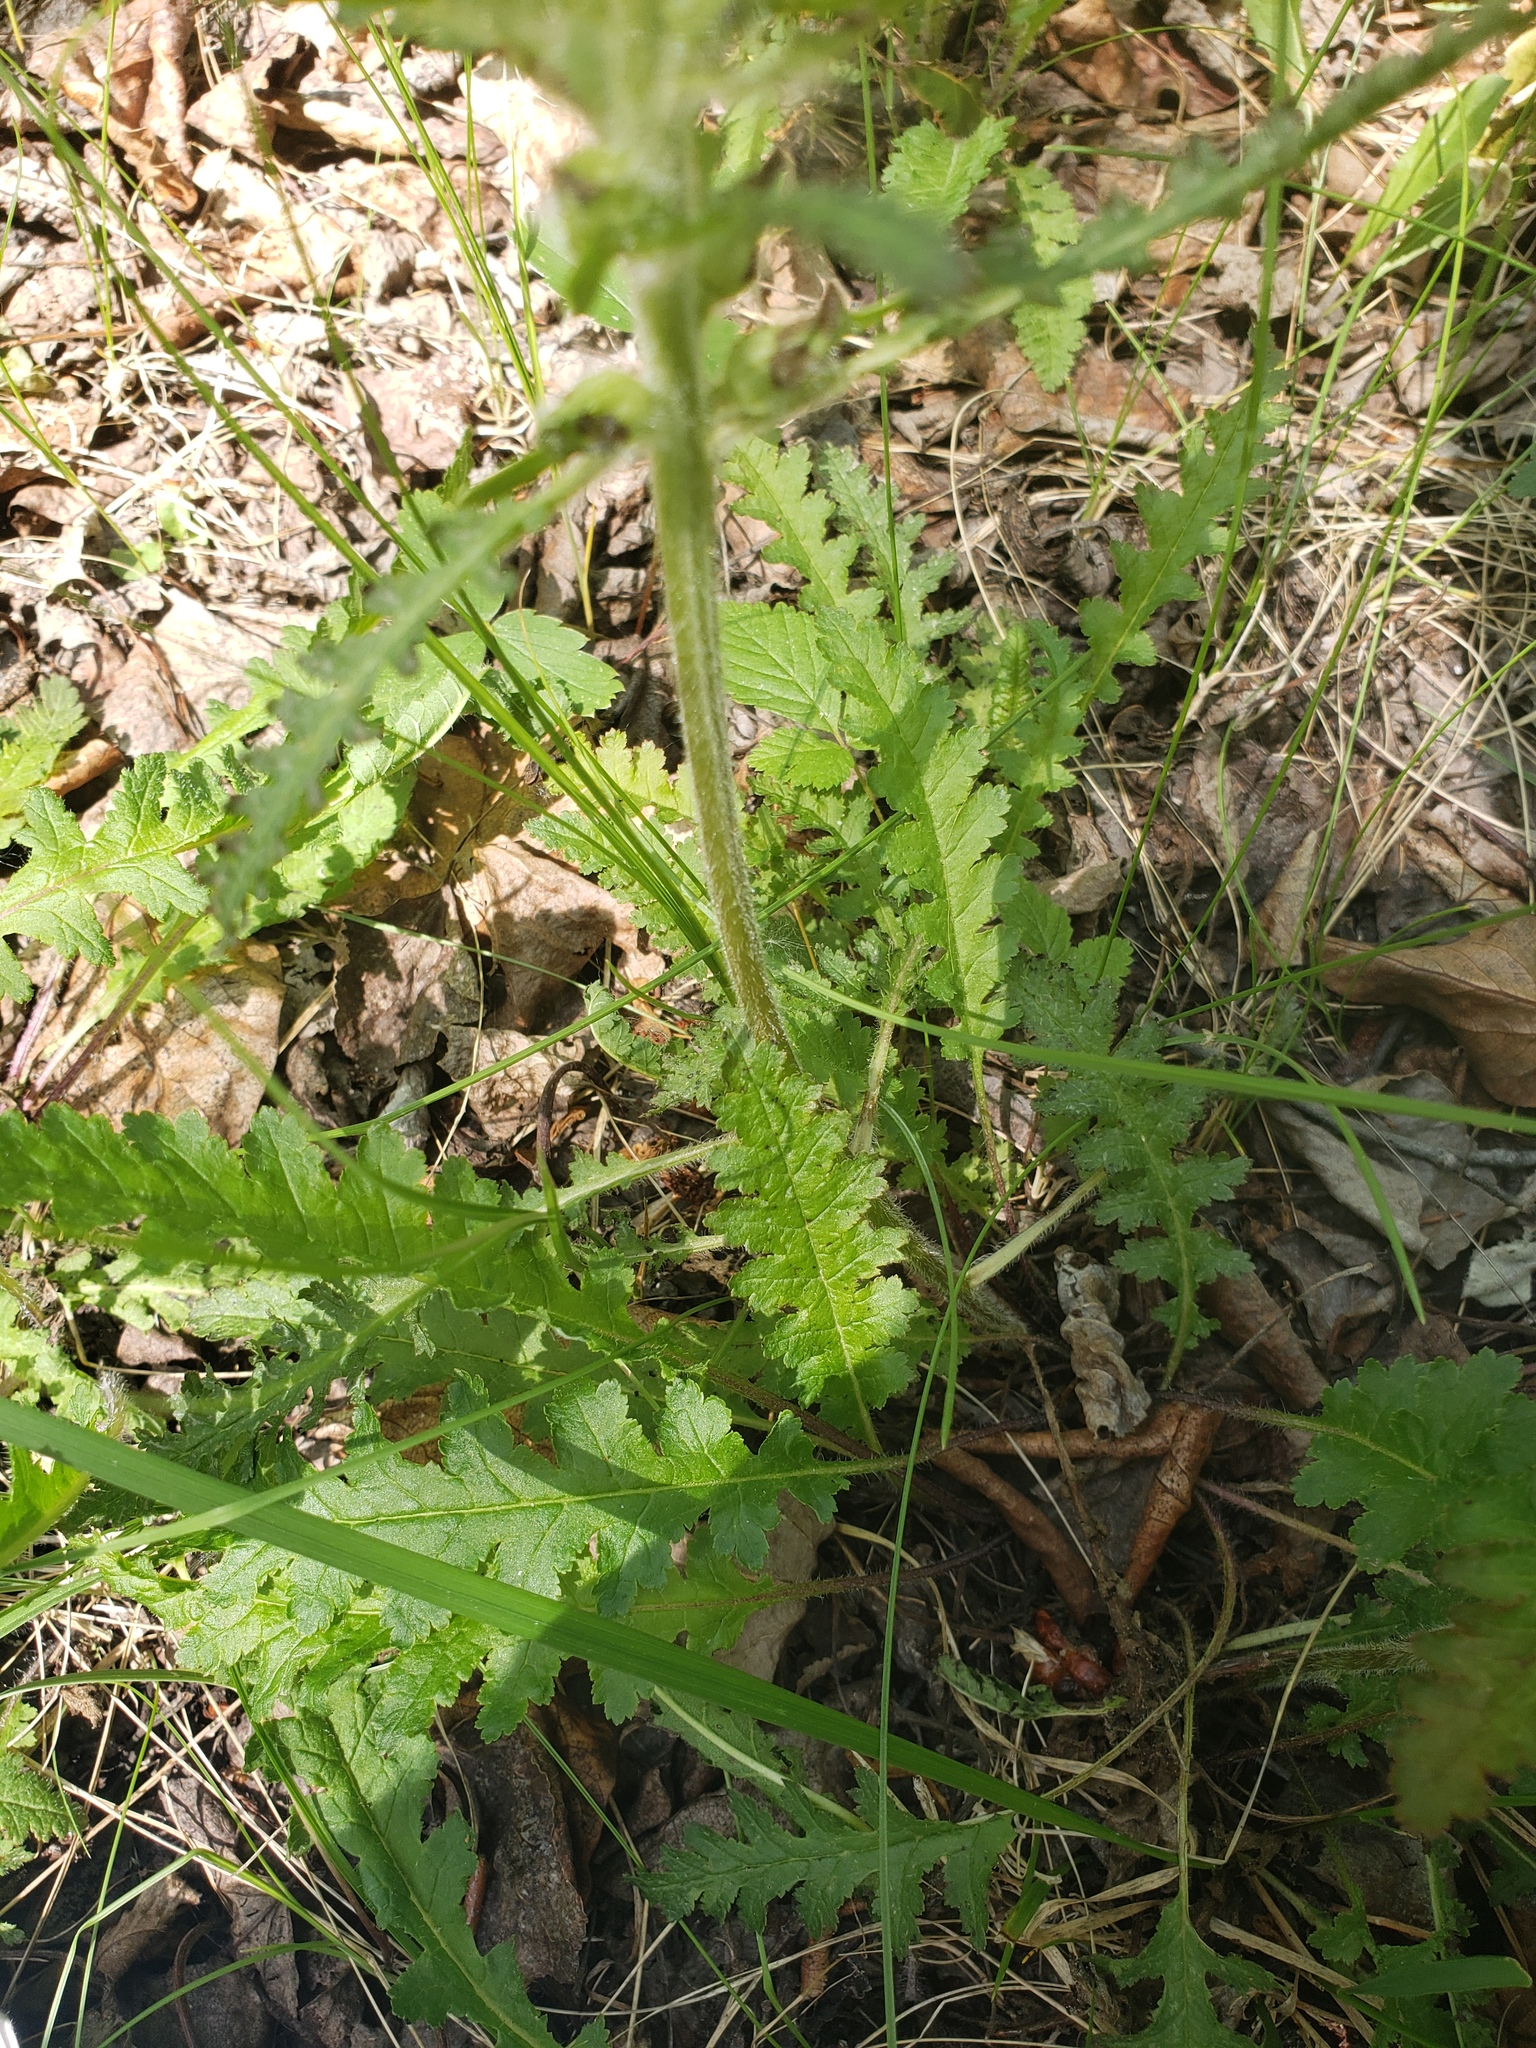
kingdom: Plantae
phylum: Tracheophyta
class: Magnoliopsida
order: Lamiales
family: Orobanchaceae
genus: Pedicularis
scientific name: Pedicularis canadensis
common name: Early lousewort
